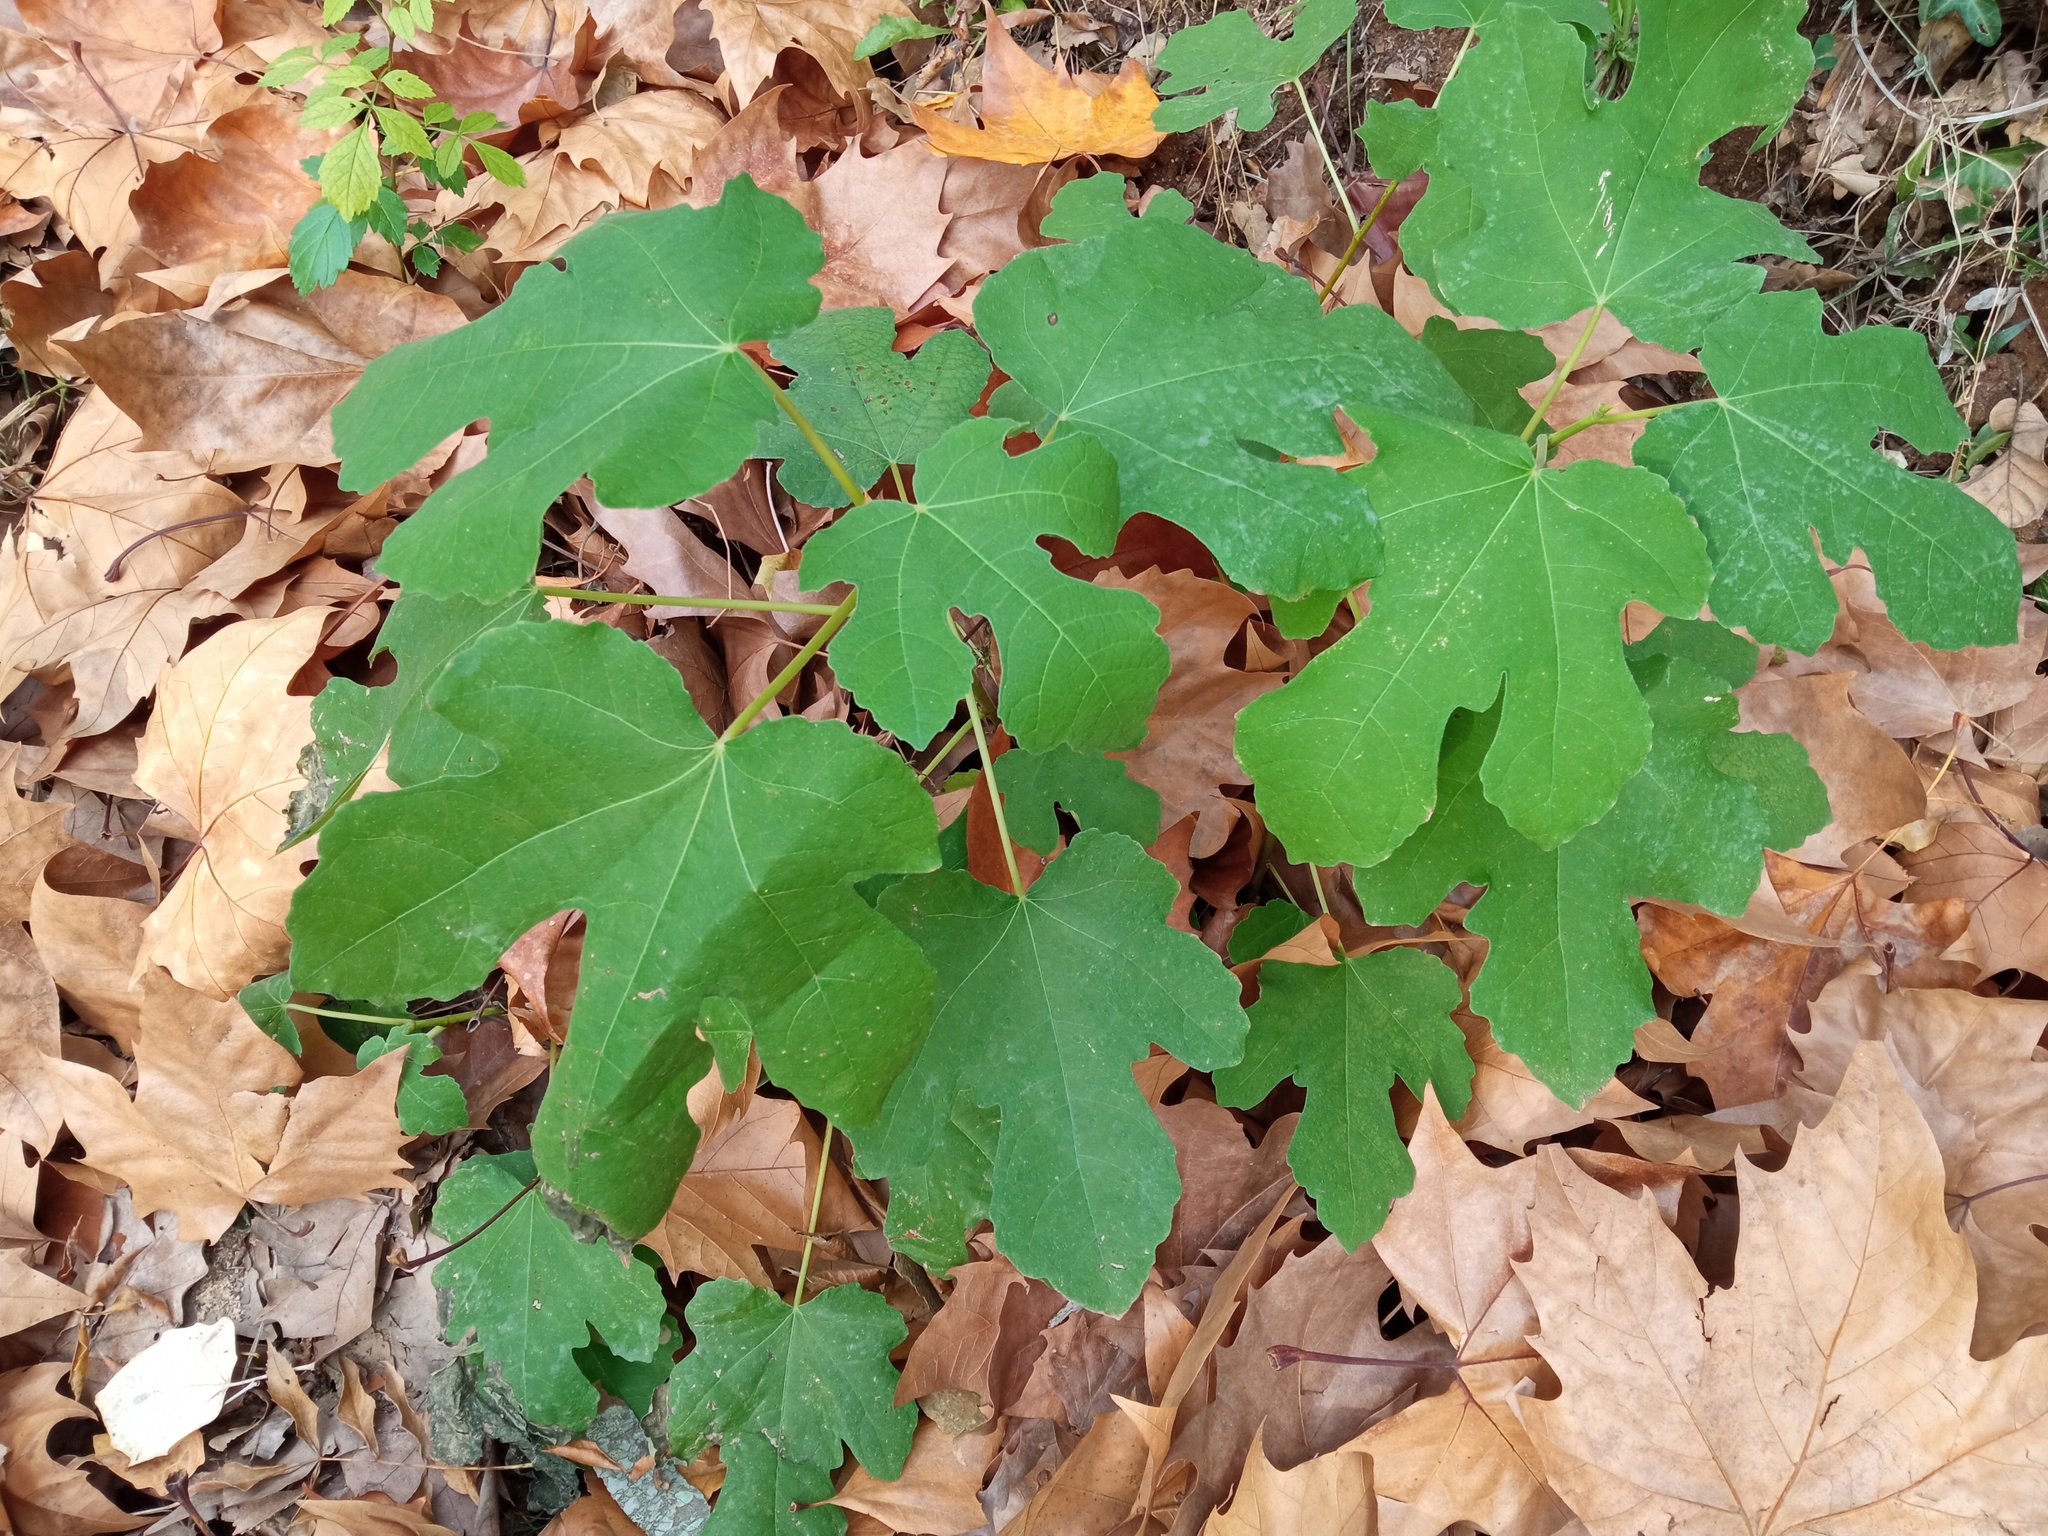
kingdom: Plantae
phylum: Tracheophyta
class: Magnoliopsida
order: Rosales
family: Moraceae
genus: Ficus
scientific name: Ficus carica
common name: Fig
